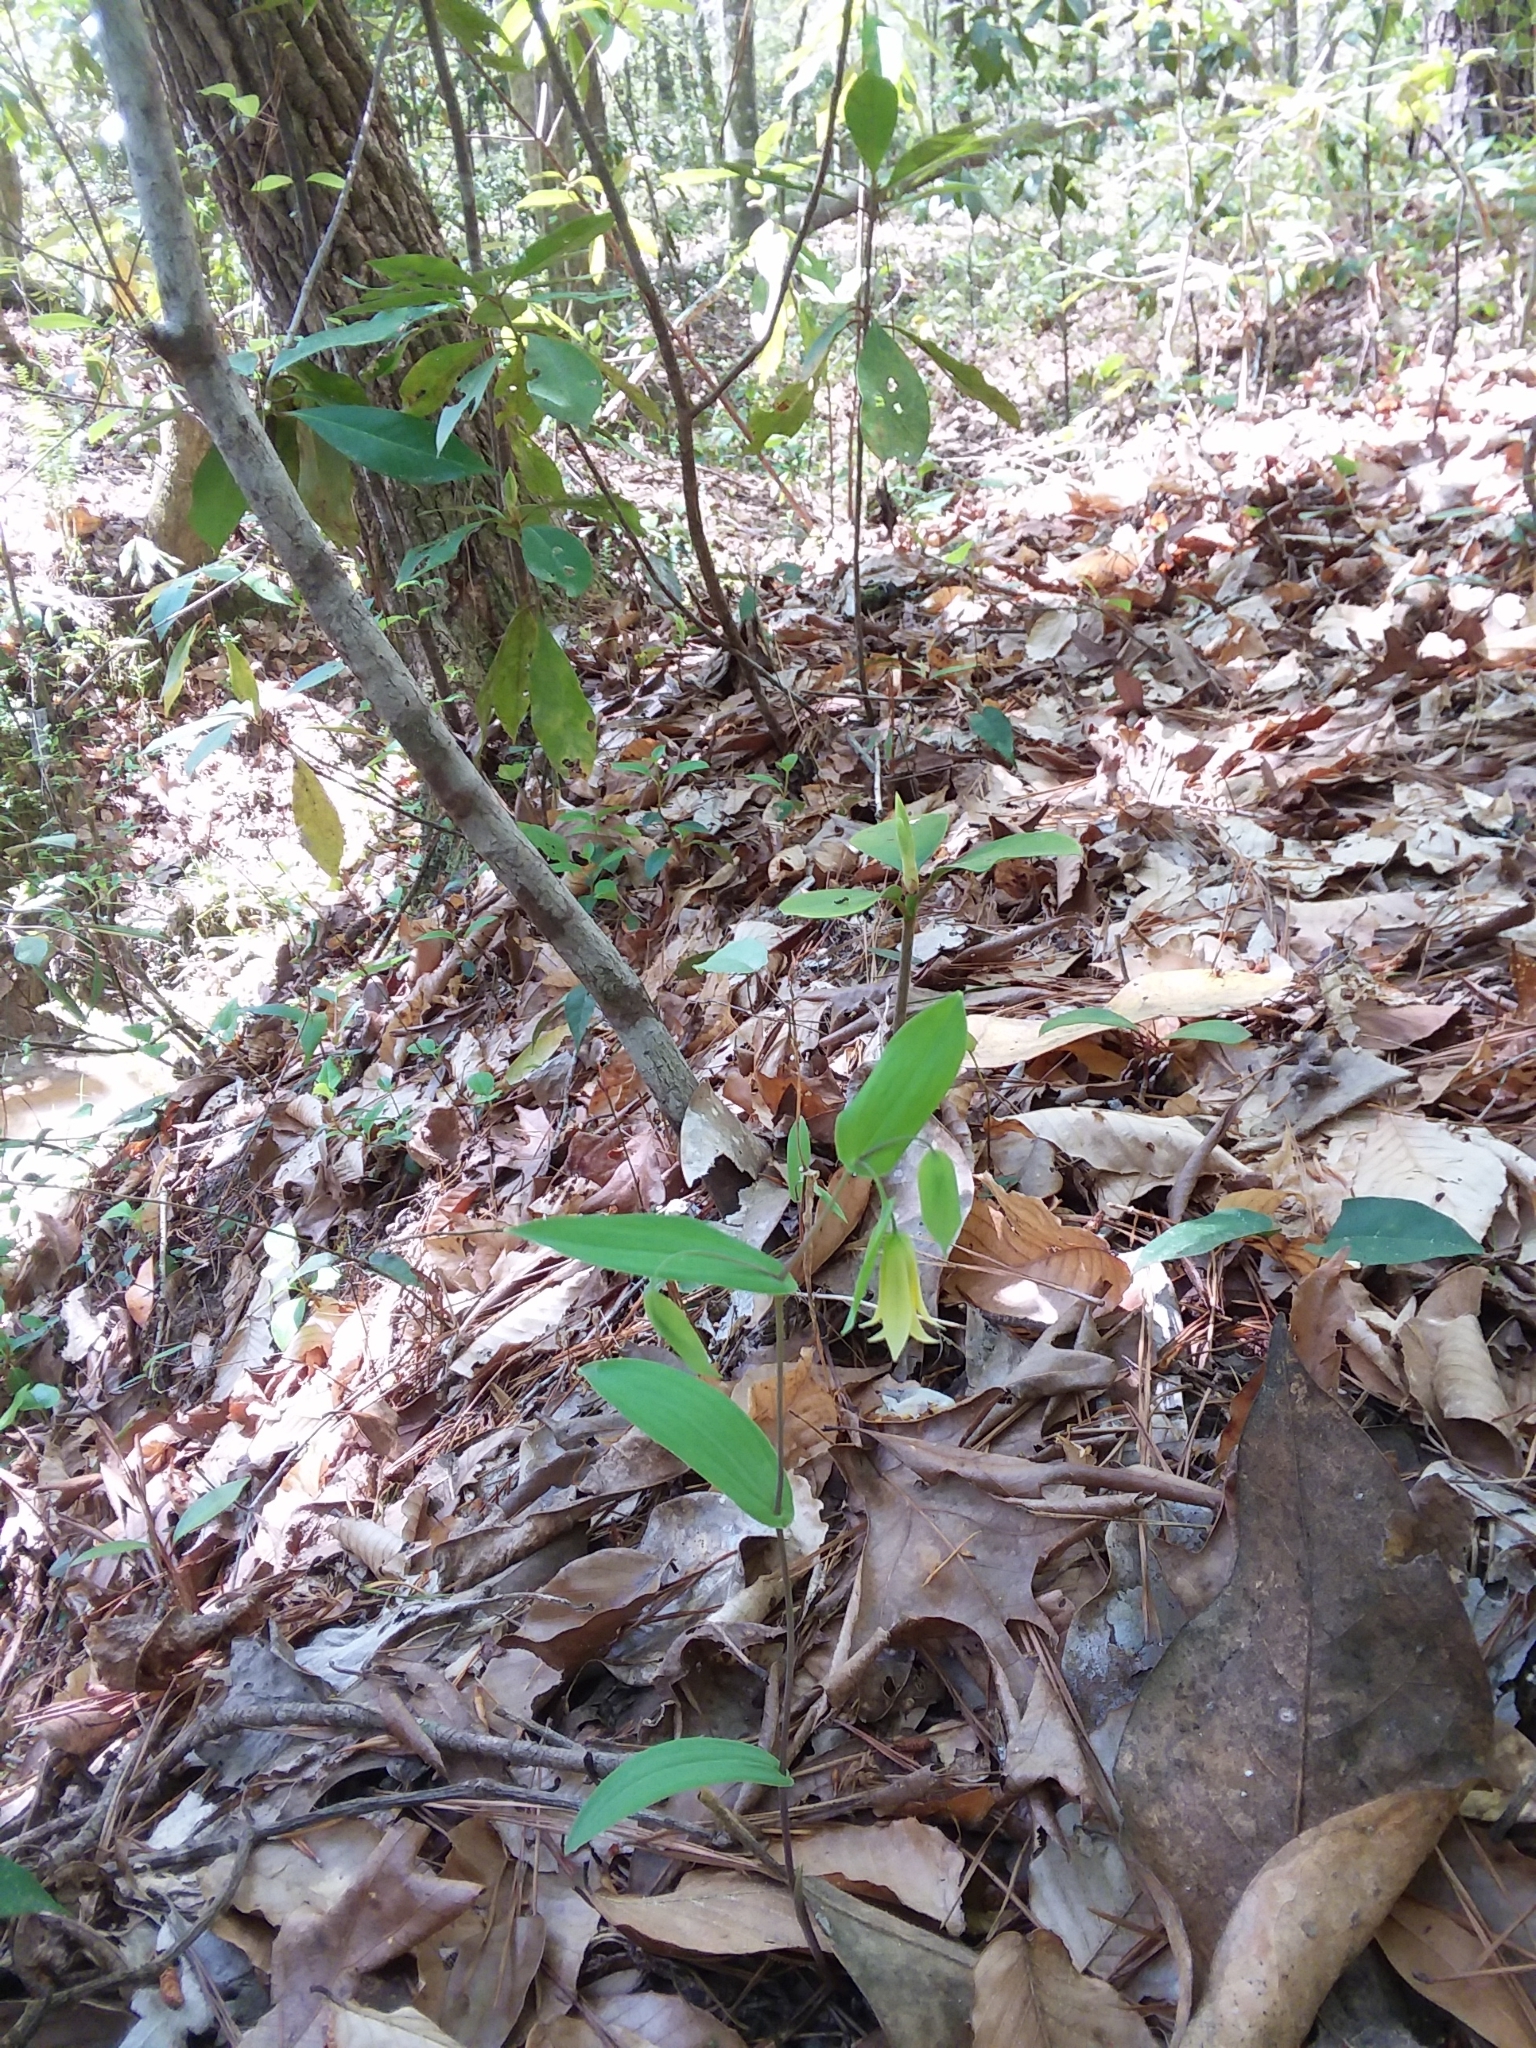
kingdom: Plantae
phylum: Tracheophyta
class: Liliopsida
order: Liliales
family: Colchicaceae
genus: Uvularia
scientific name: Uvularia perfoliata
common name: Perfoliate bellwort
